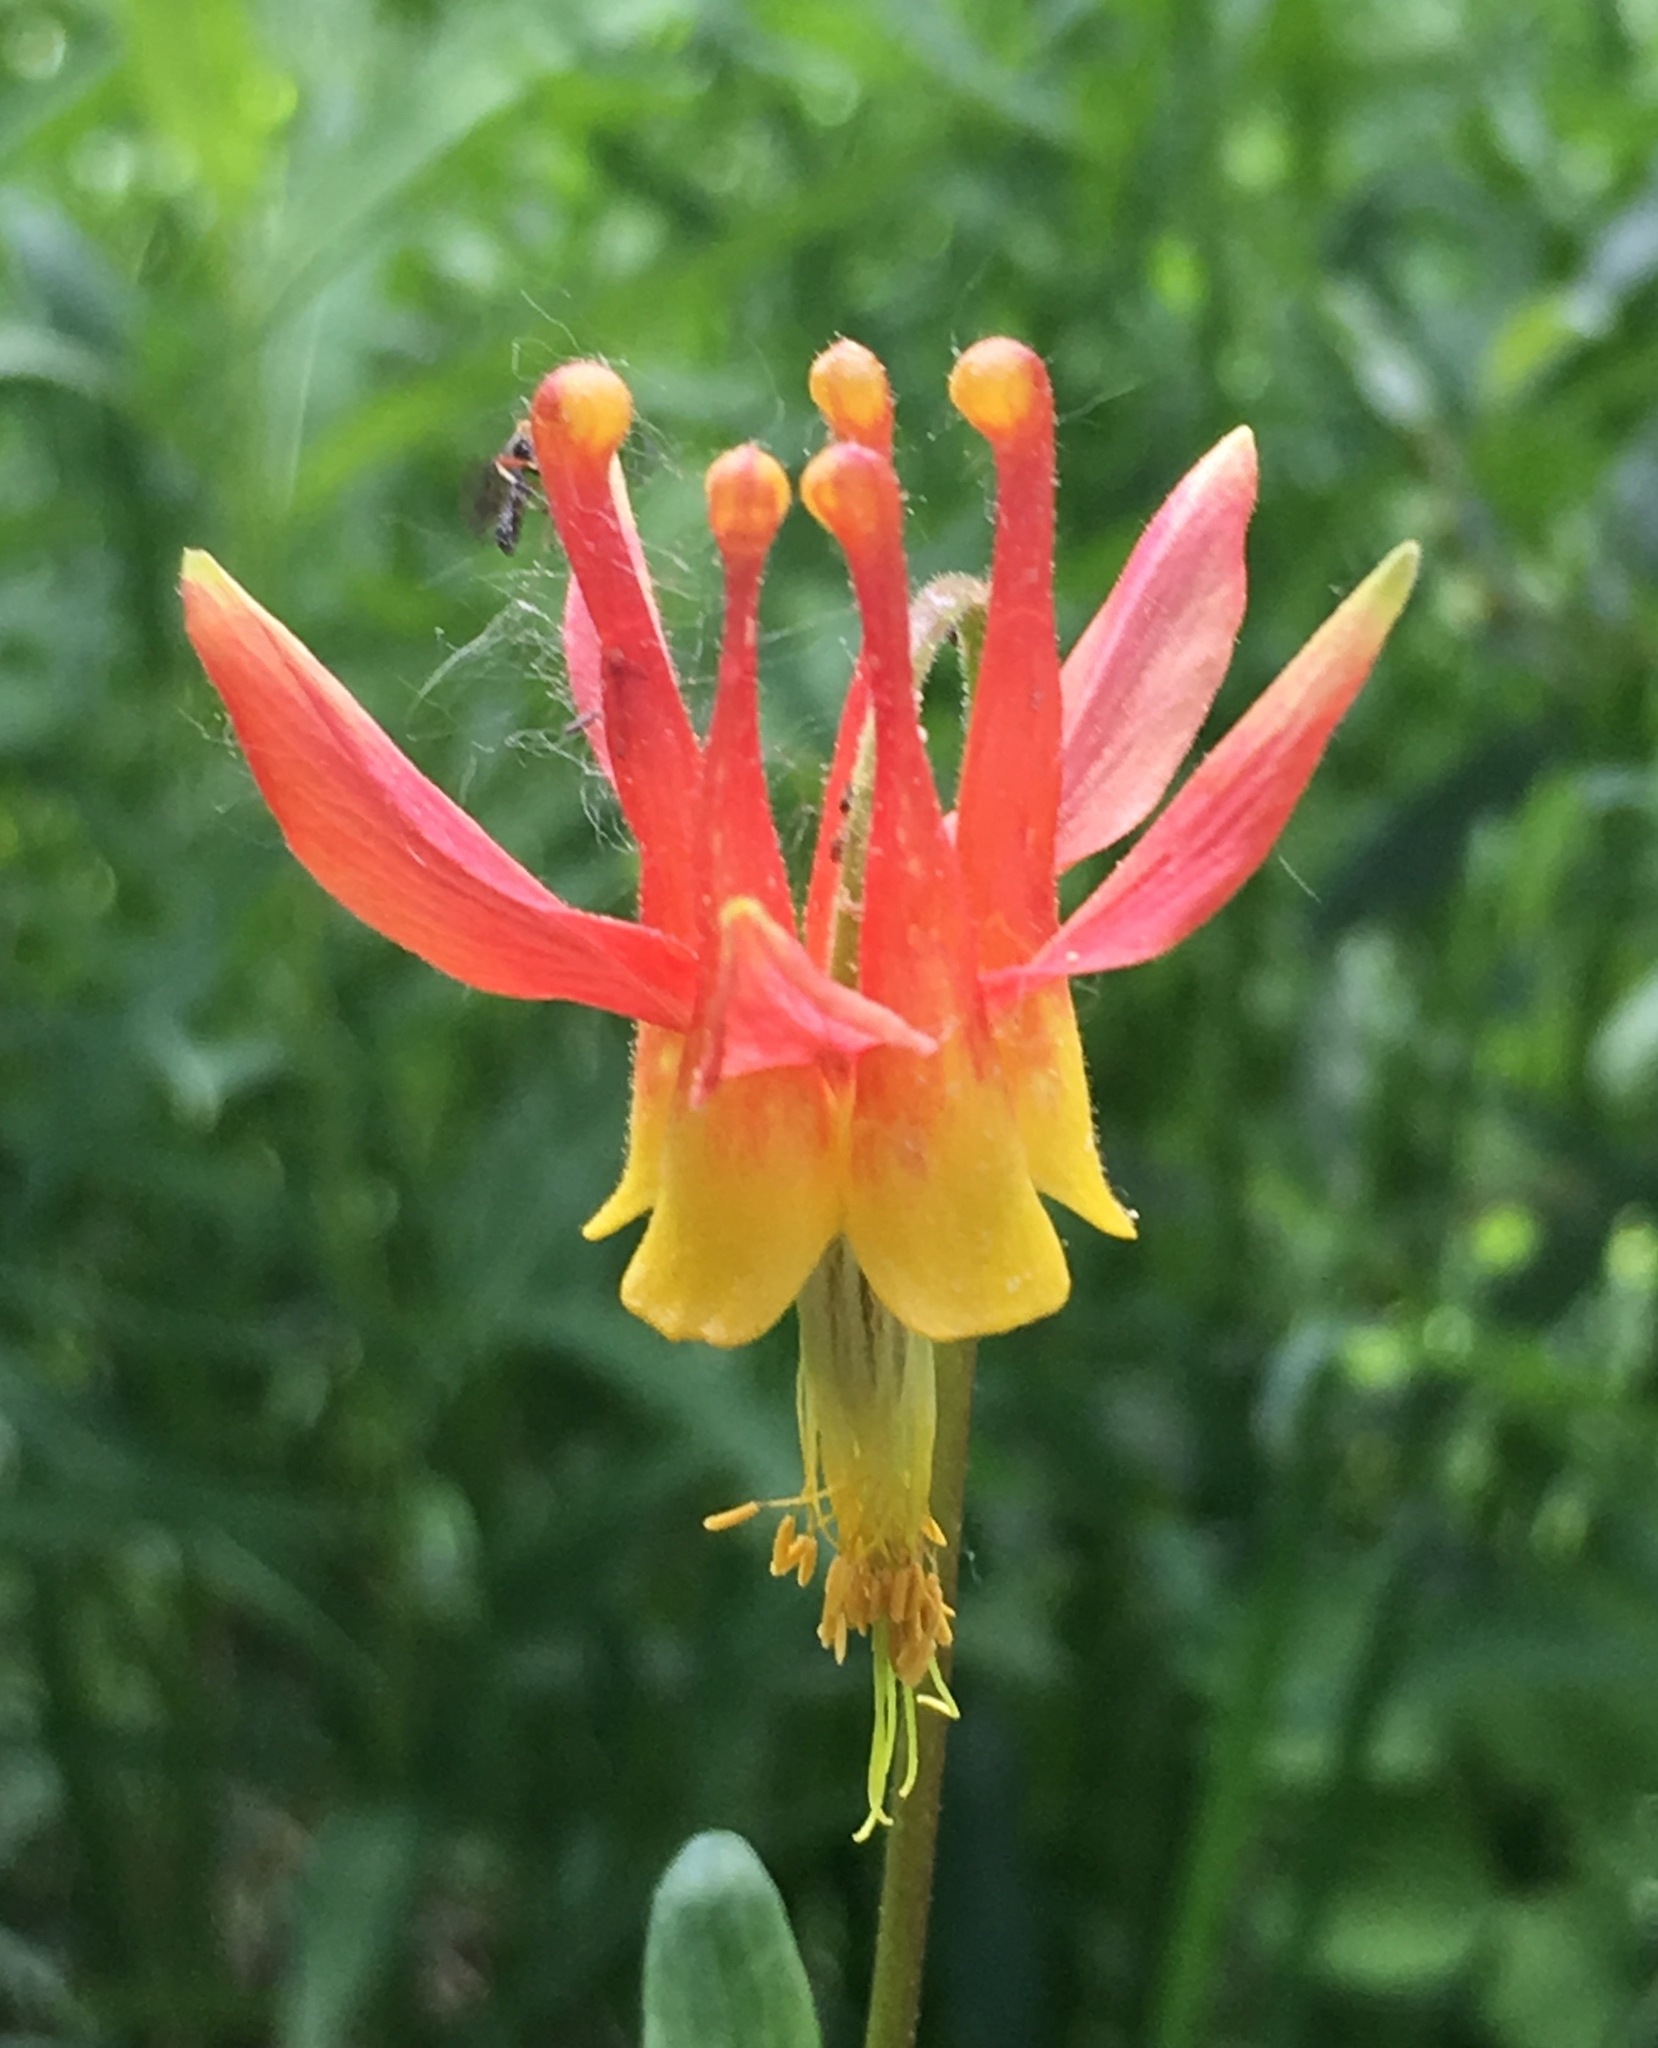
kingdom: Plantae
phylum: Tracheophyta
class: Magnoliopsida
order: Ranunculales
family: Ranunculaceae
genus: Aquilegia
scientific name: Aquilegia formosa
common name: Sitka columbine
